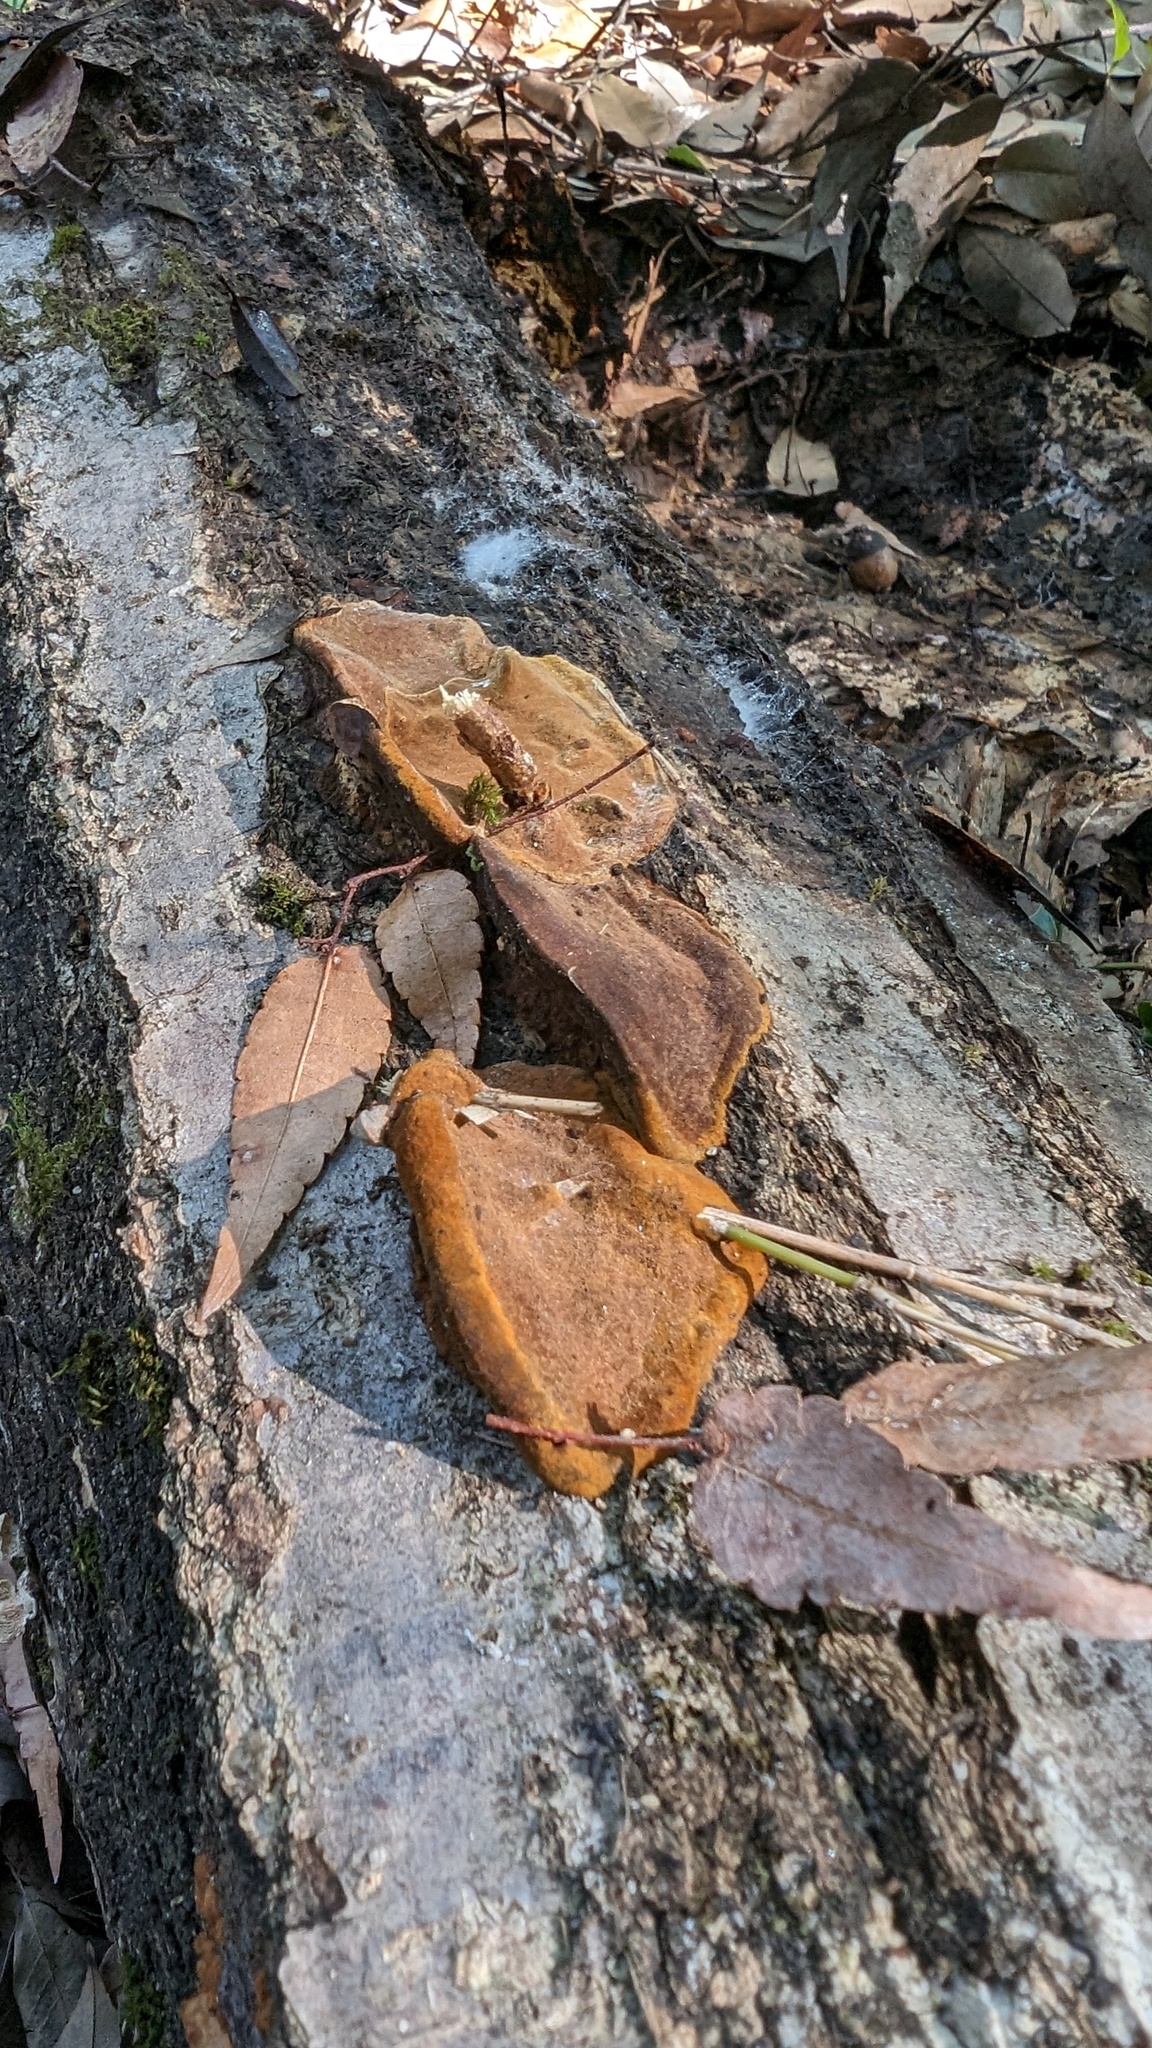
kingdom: Fungi
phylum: Basidiomycota
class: Agaricomycetes
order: Hymenochaetales
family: Hymenochaetaceae
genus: Phellinus
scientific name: Phellinus gilvus
